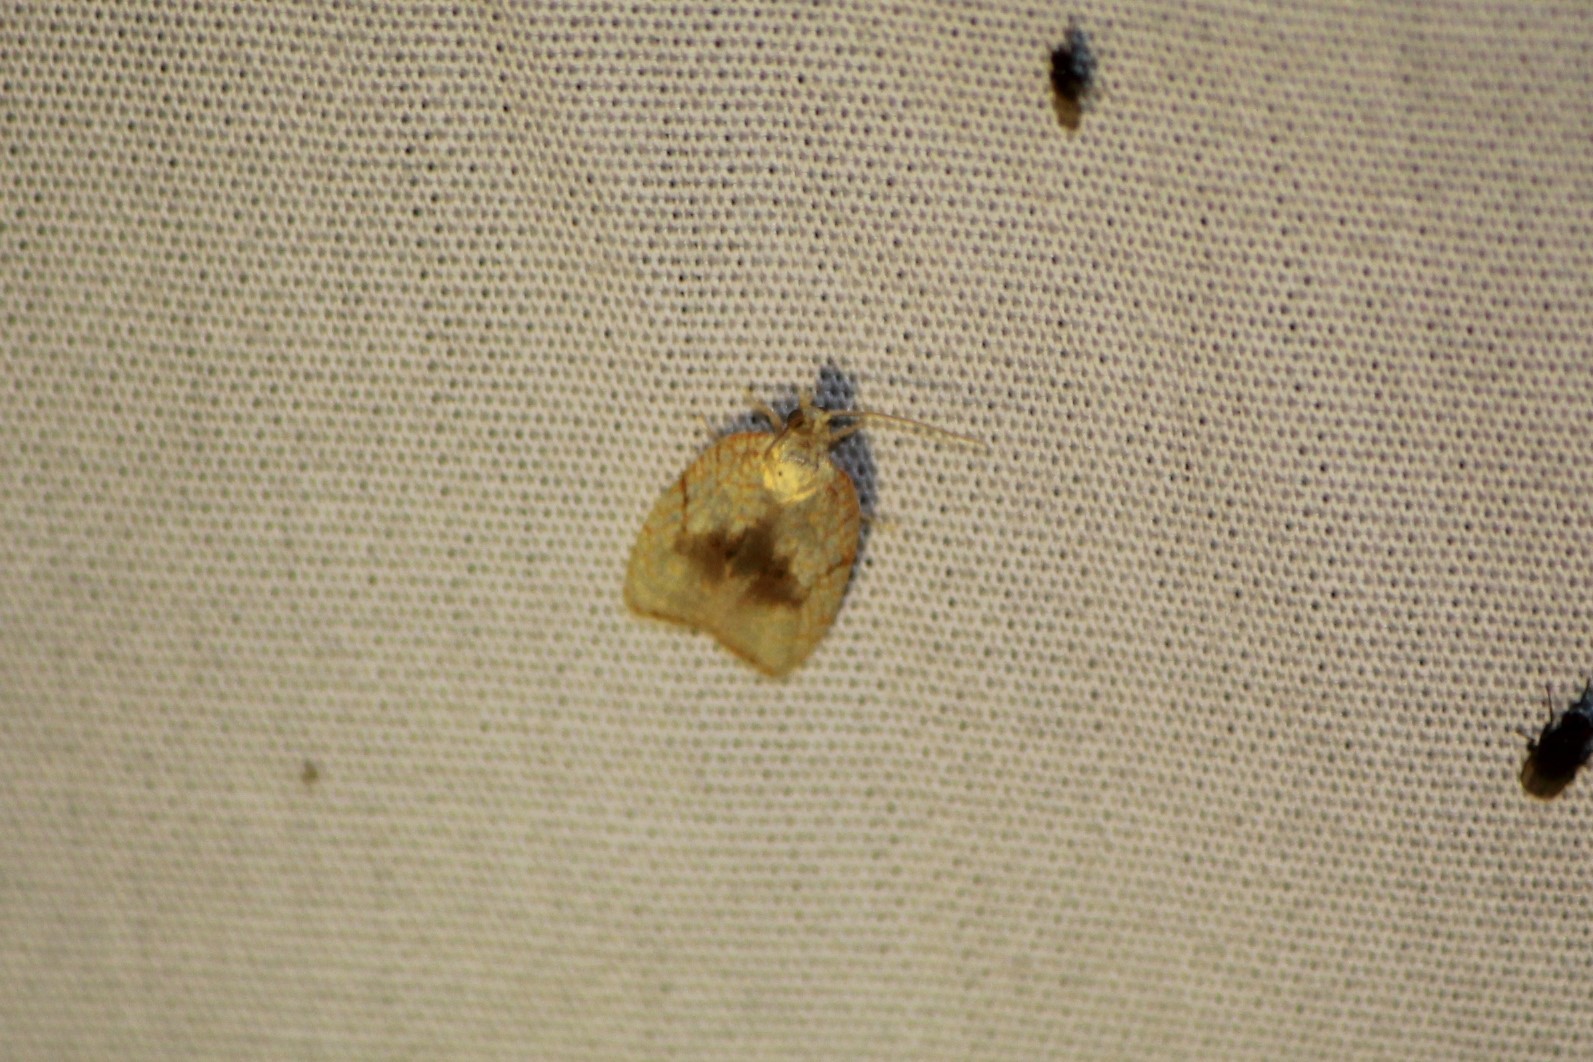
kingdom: Animalia
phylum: Arthropoda
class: Insecta
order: Lepidoptera
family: Tortricidae
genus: Acleris
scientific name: Acleris forsskaleana
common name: Maple button
